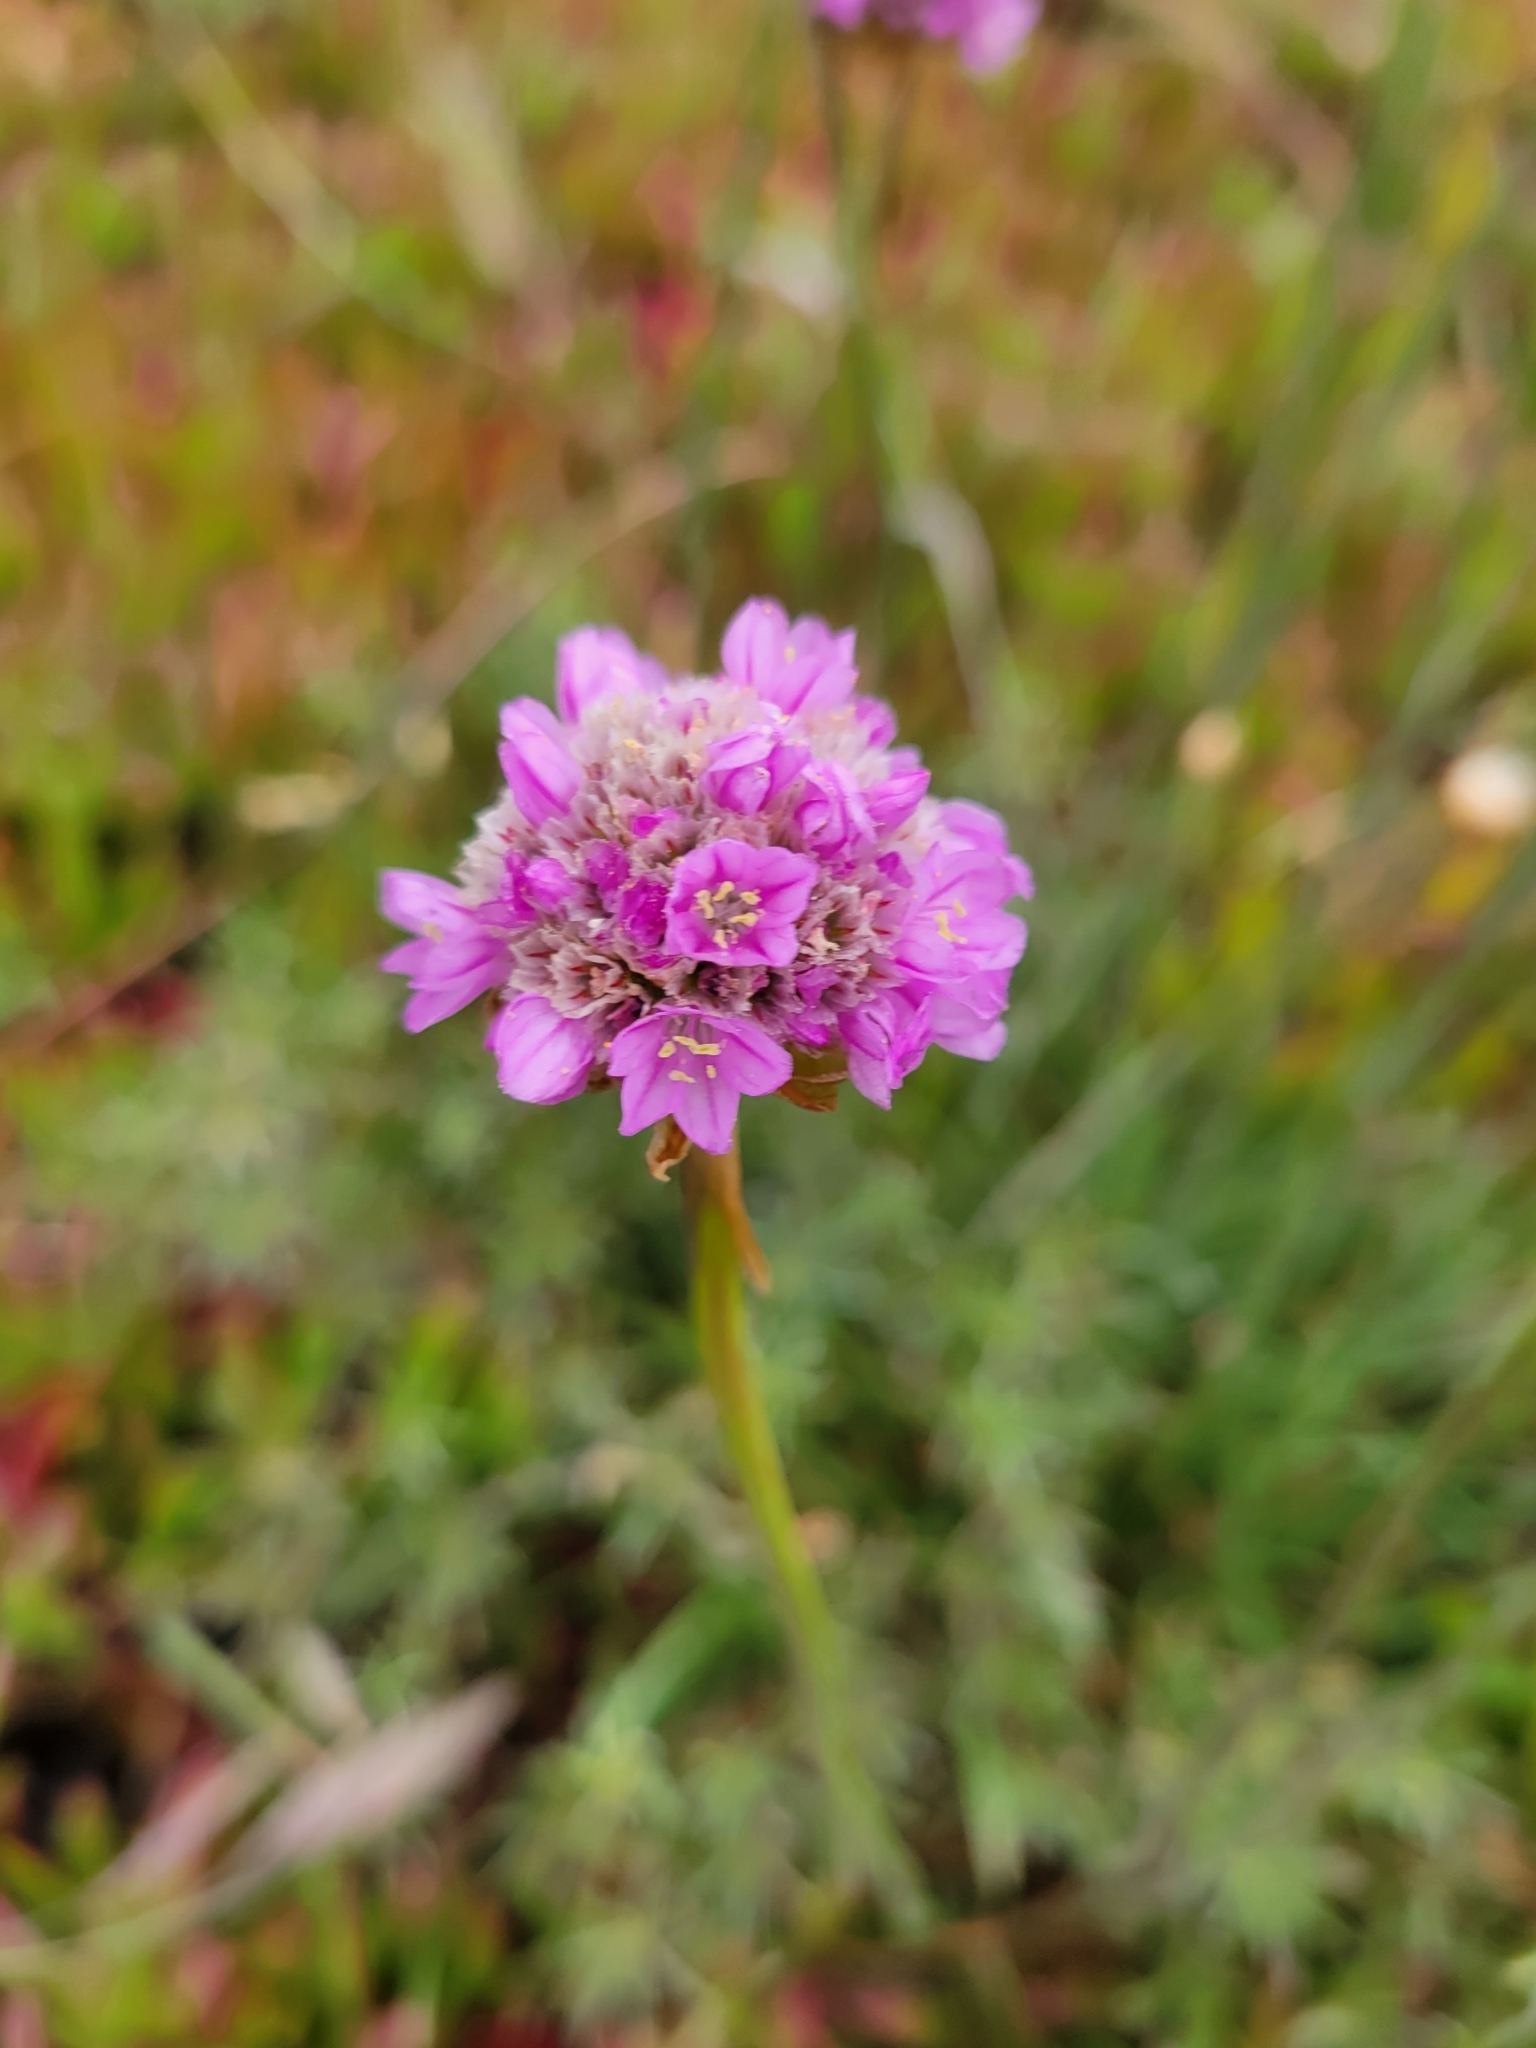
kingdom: Plantae
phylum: Tracheophyta
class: Magnoliopsida
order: Caryophyllales
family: Plumbaginaceae
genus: Armeria
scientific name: Armeria maritima
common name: Thrift
